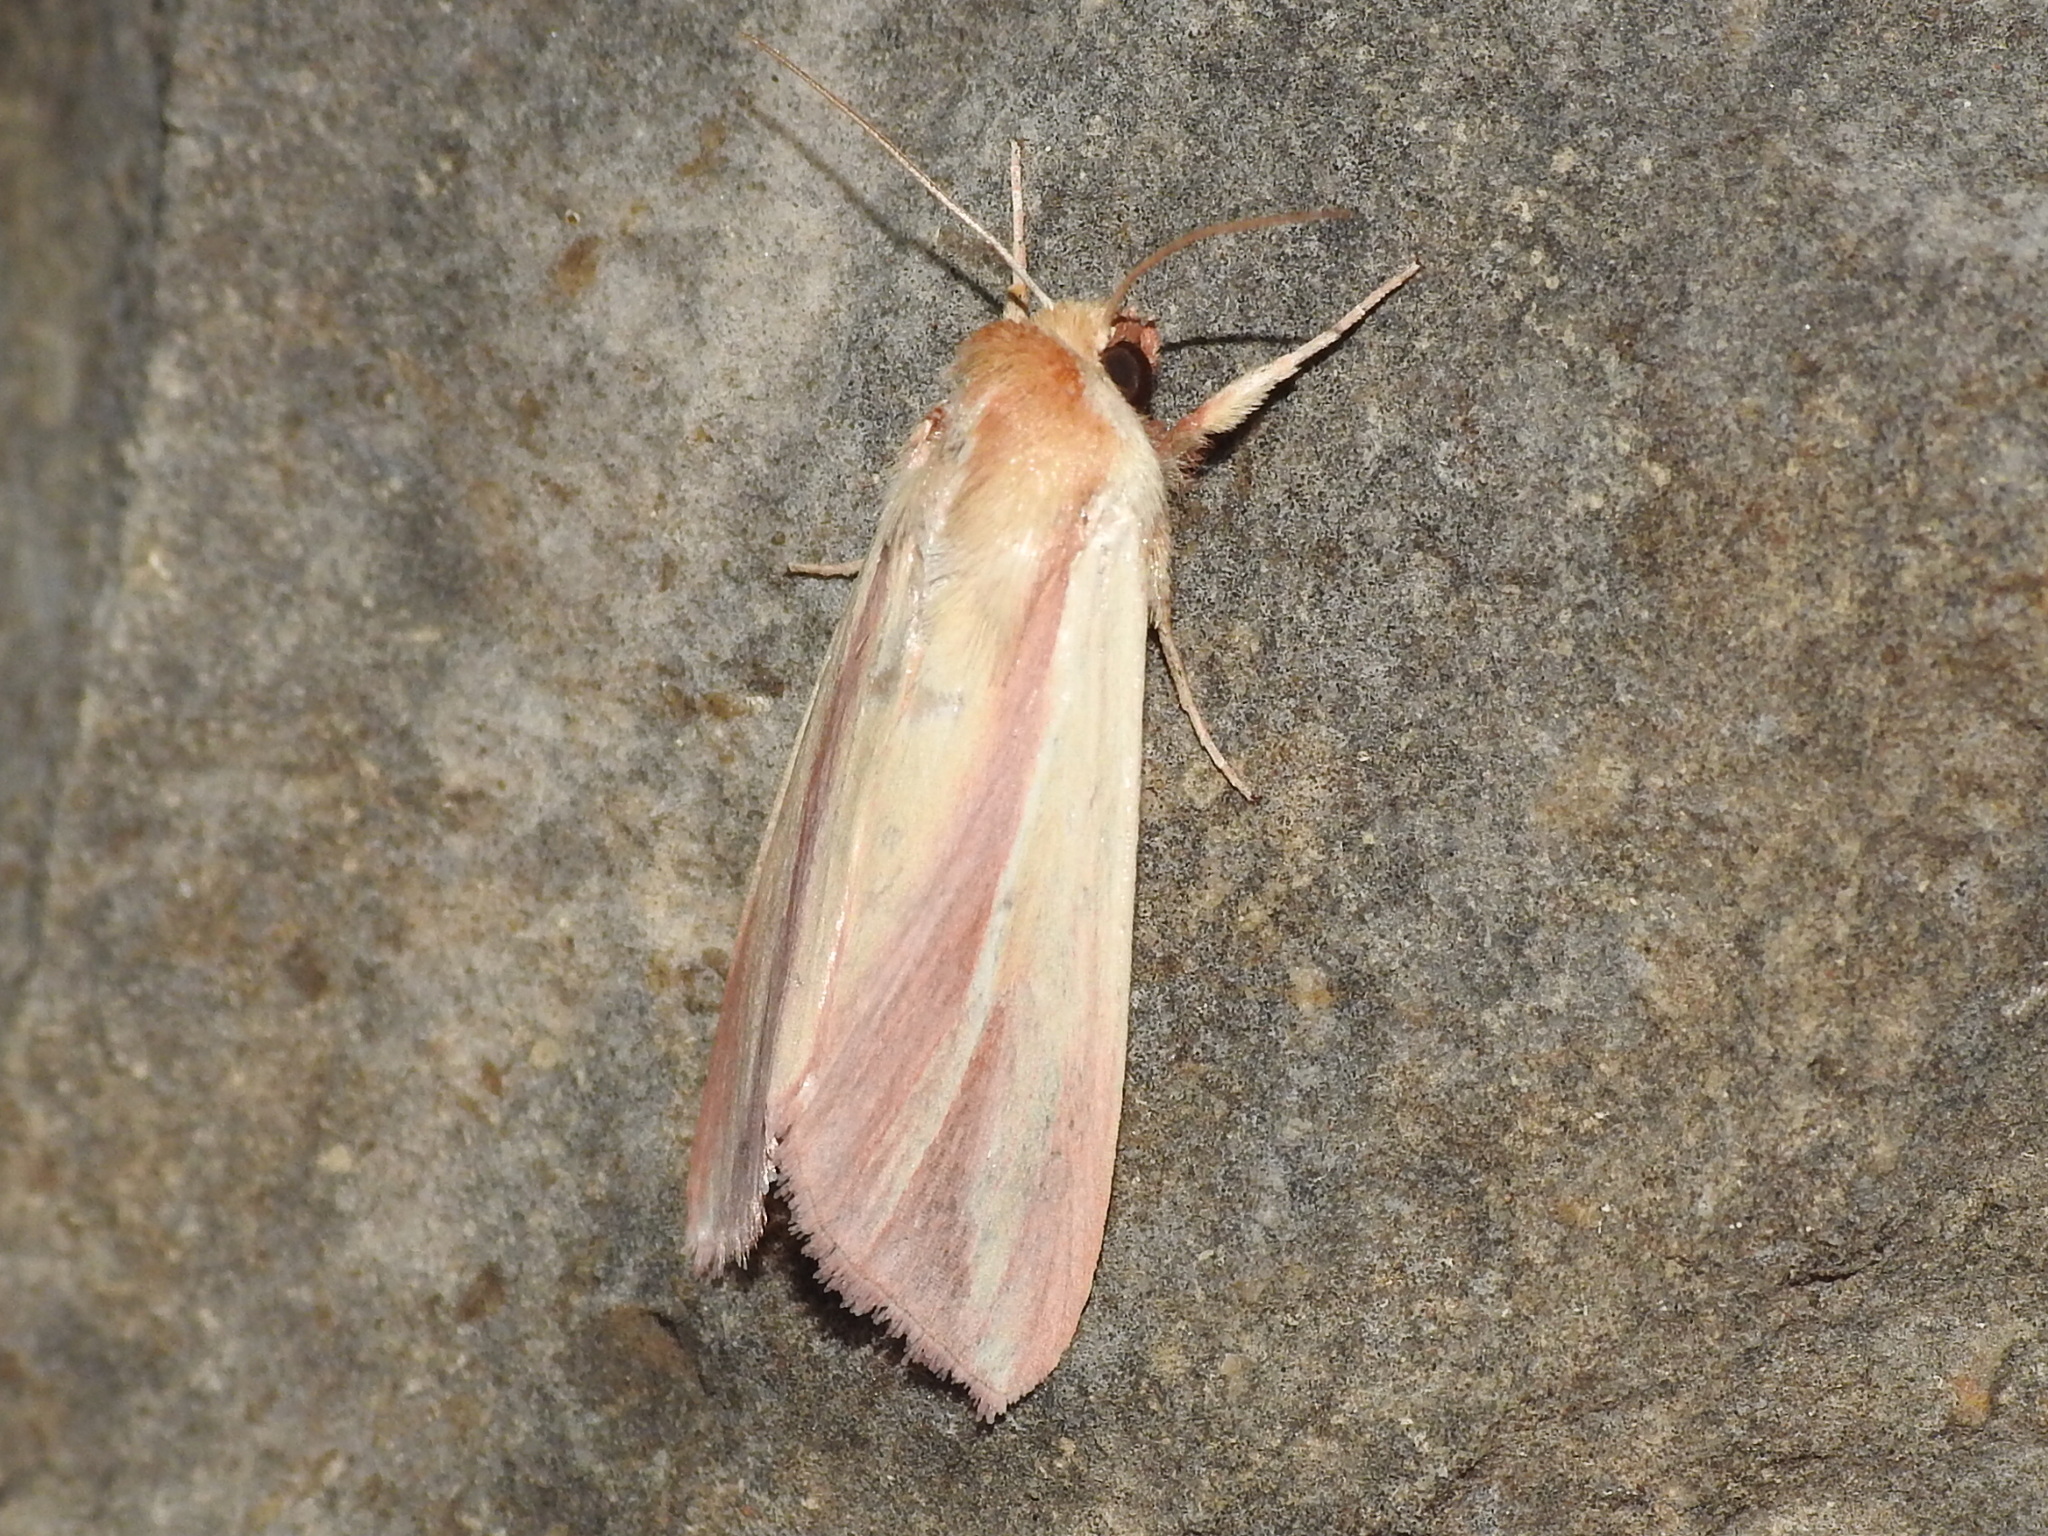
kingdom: Animalia
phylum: Arthropoda
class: Insecta
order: Lepidoptera
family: Noctuidae
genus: Dargida
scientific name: Dargida rubripennis
